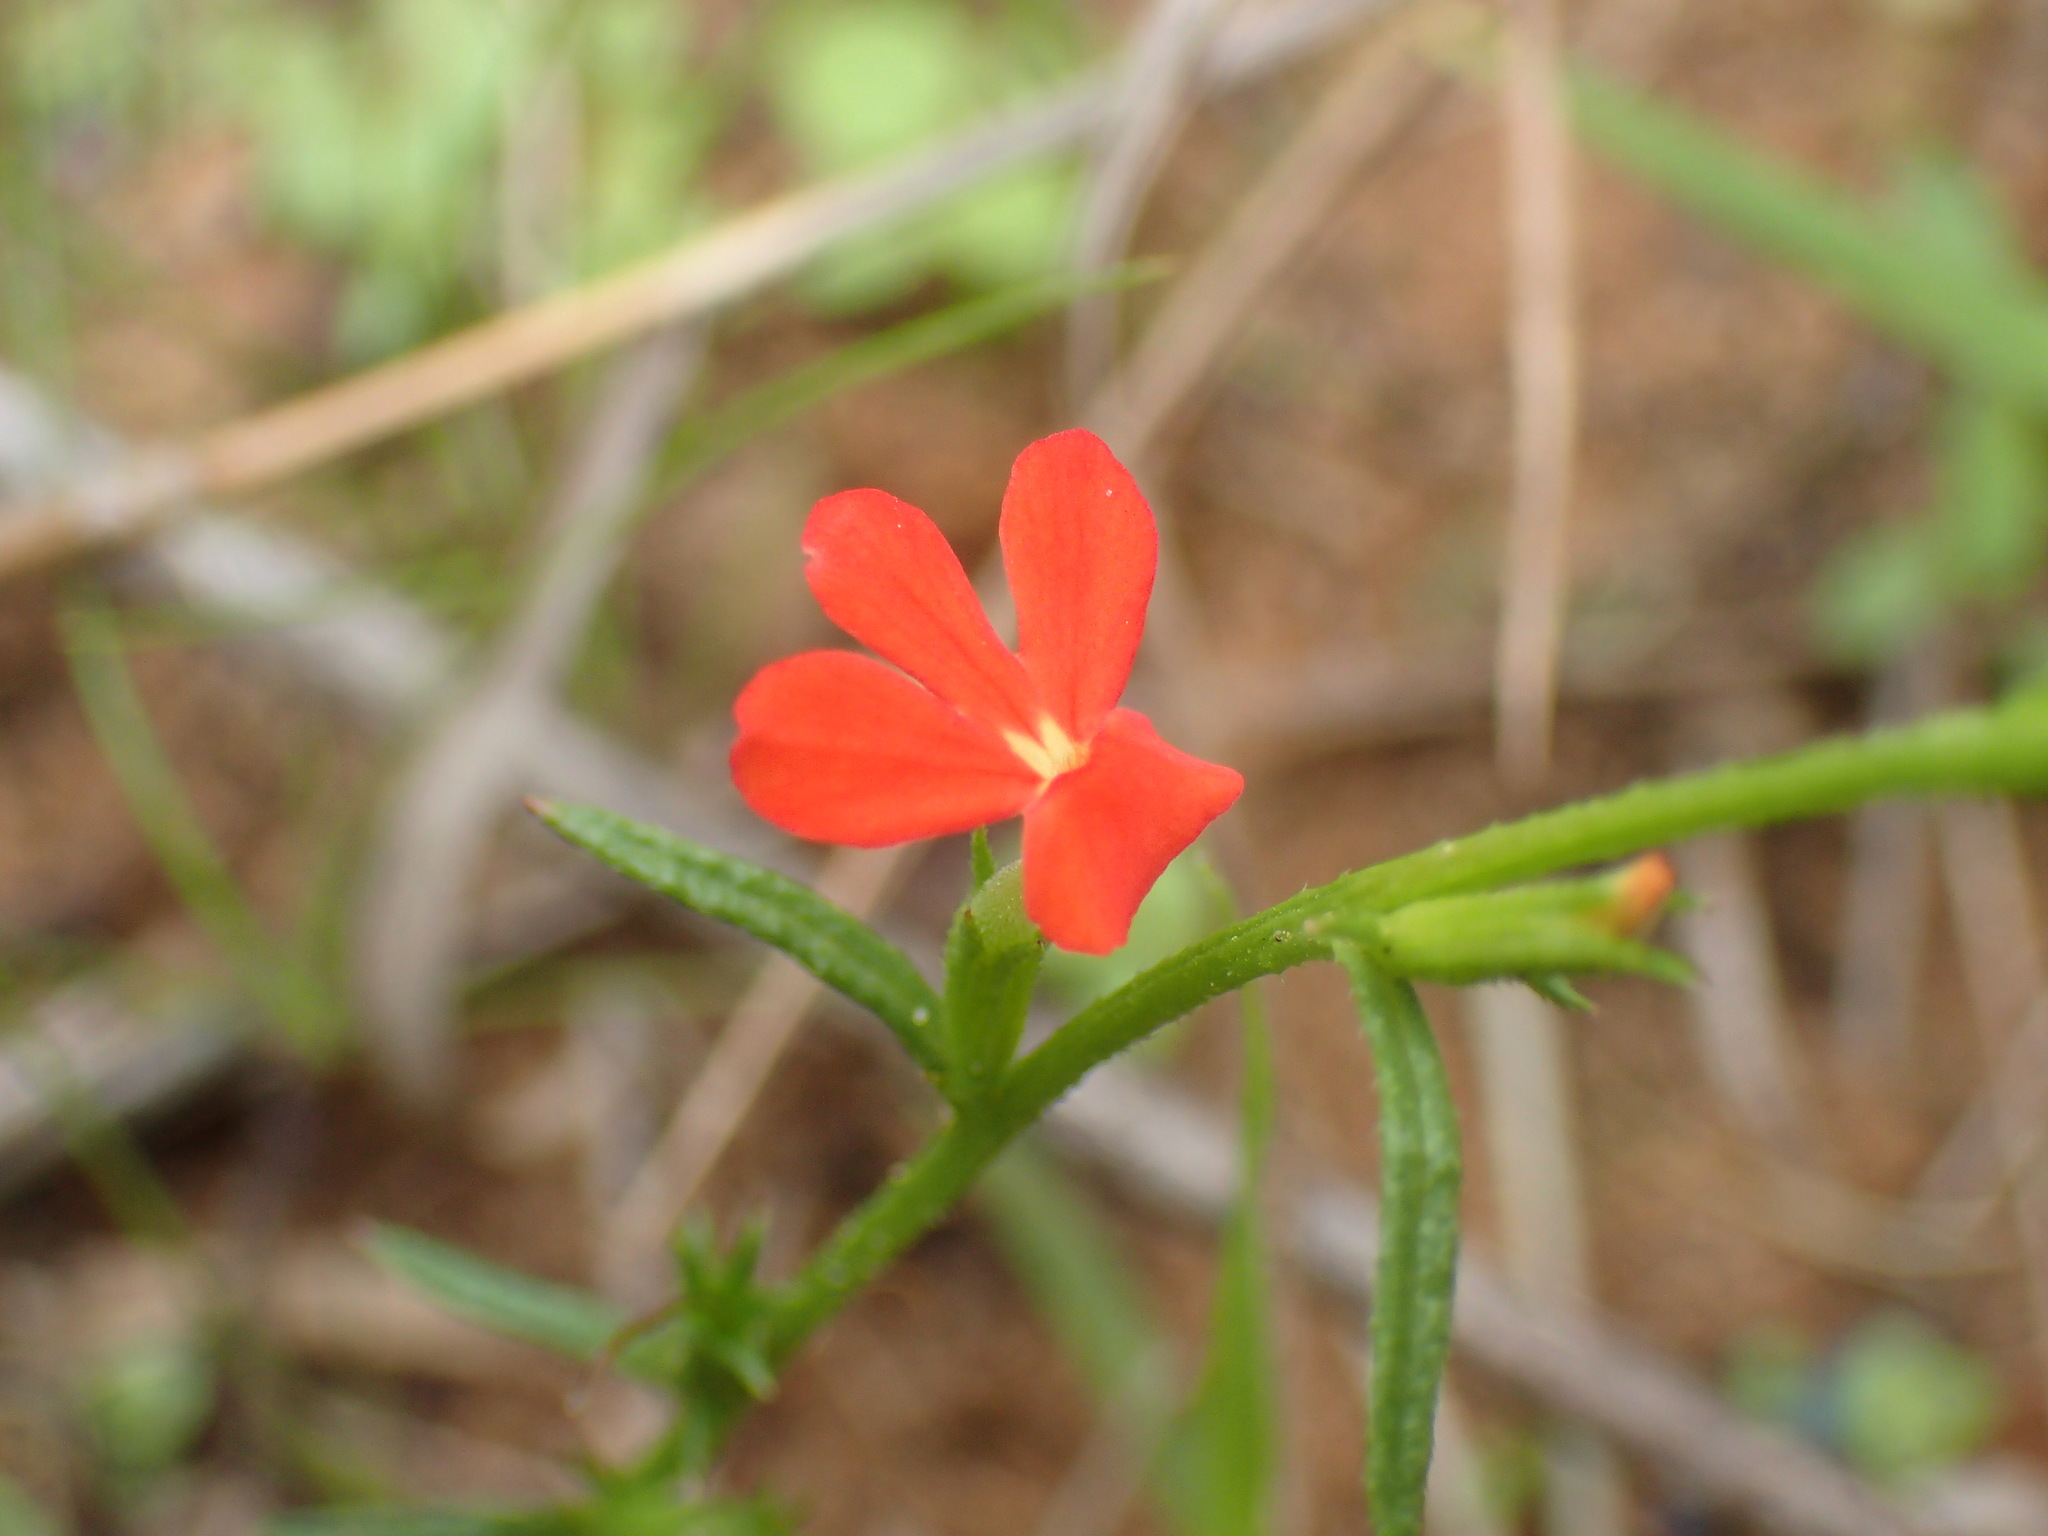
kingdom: Plantae
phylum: Tracheophyta
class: Magnoliopsida
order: Lamiales
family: Orobanchaceae
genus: Striga
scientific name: Striga asiatica
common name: Asiatic witchweed
